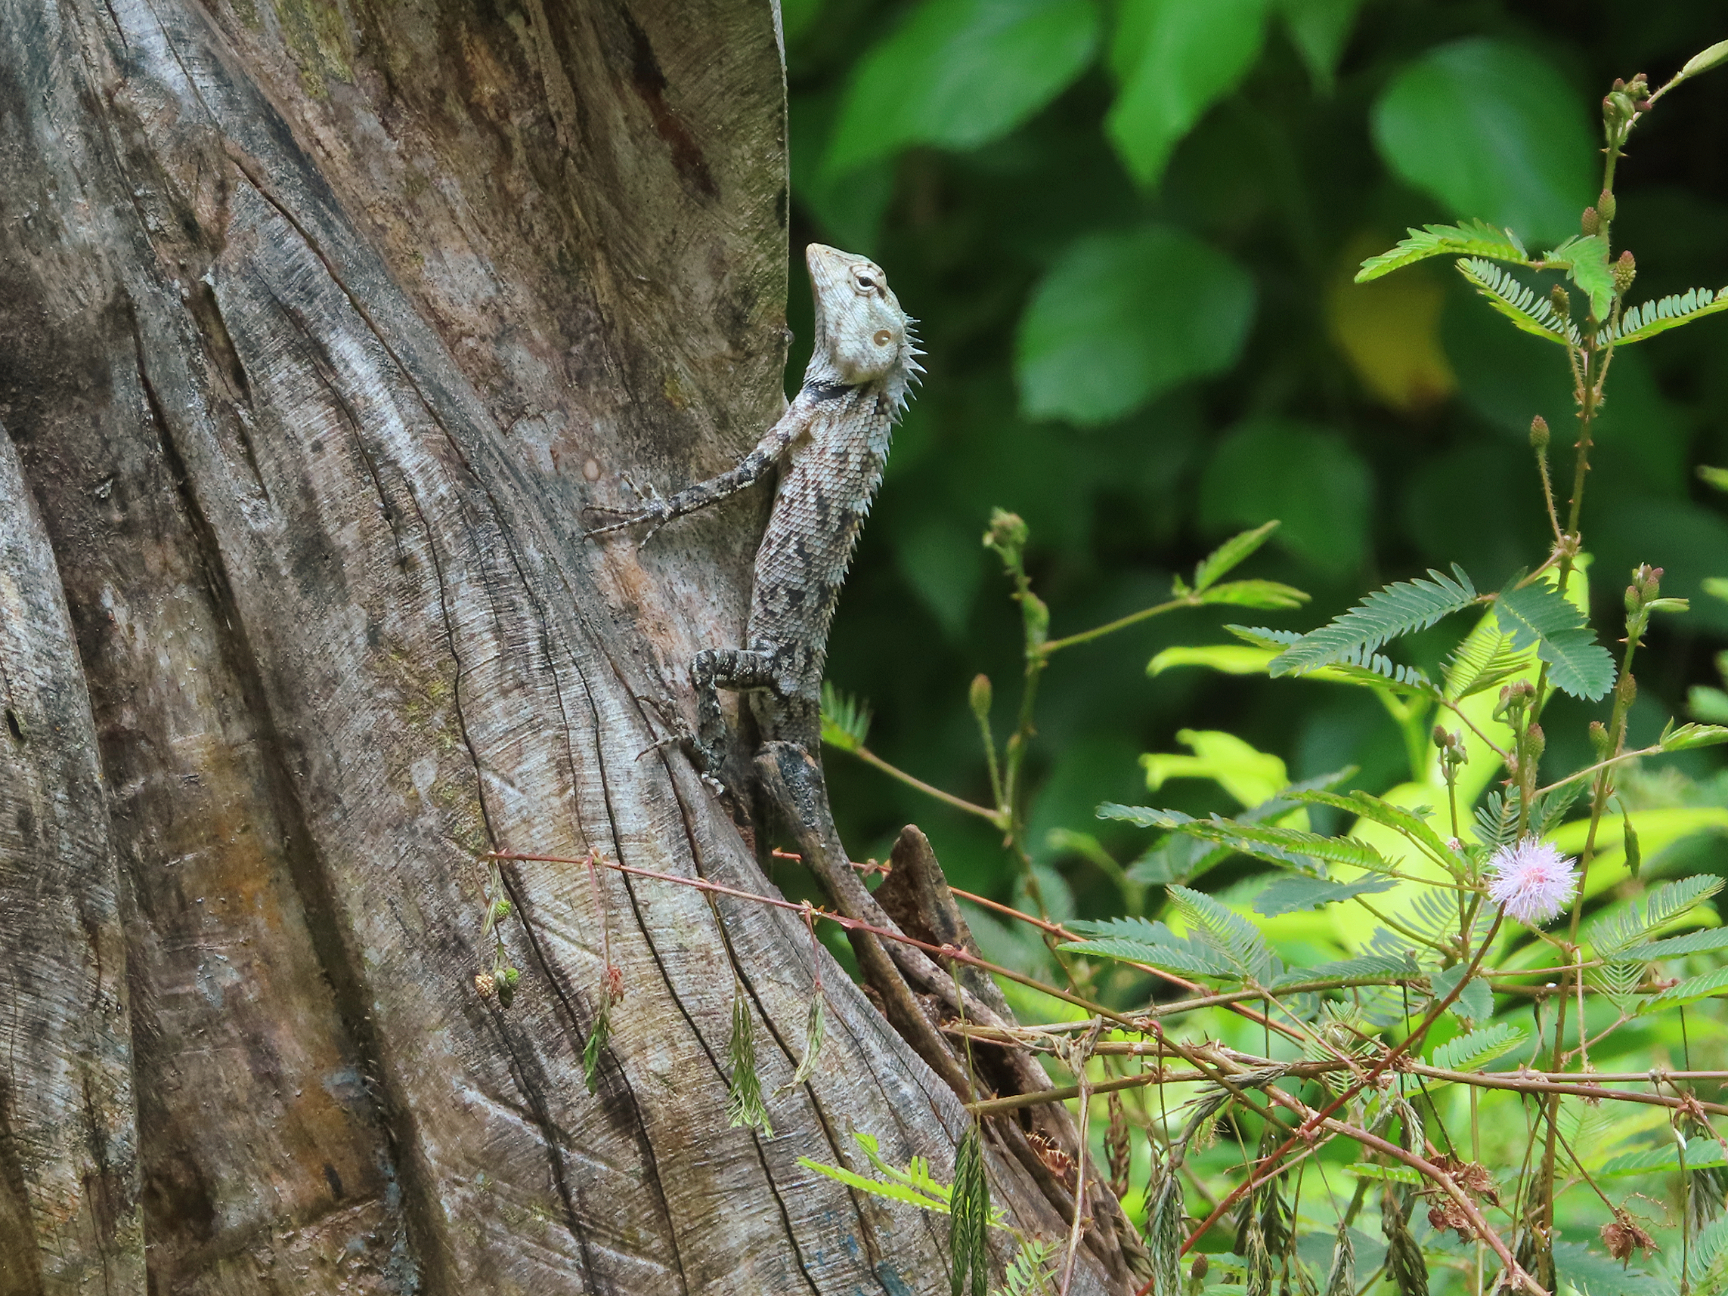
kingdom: Animalia
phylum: Chordata
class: Squamata
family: Agamidae
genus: Calotes
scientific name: Calotes versicolor
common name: Oriental garden lizard
